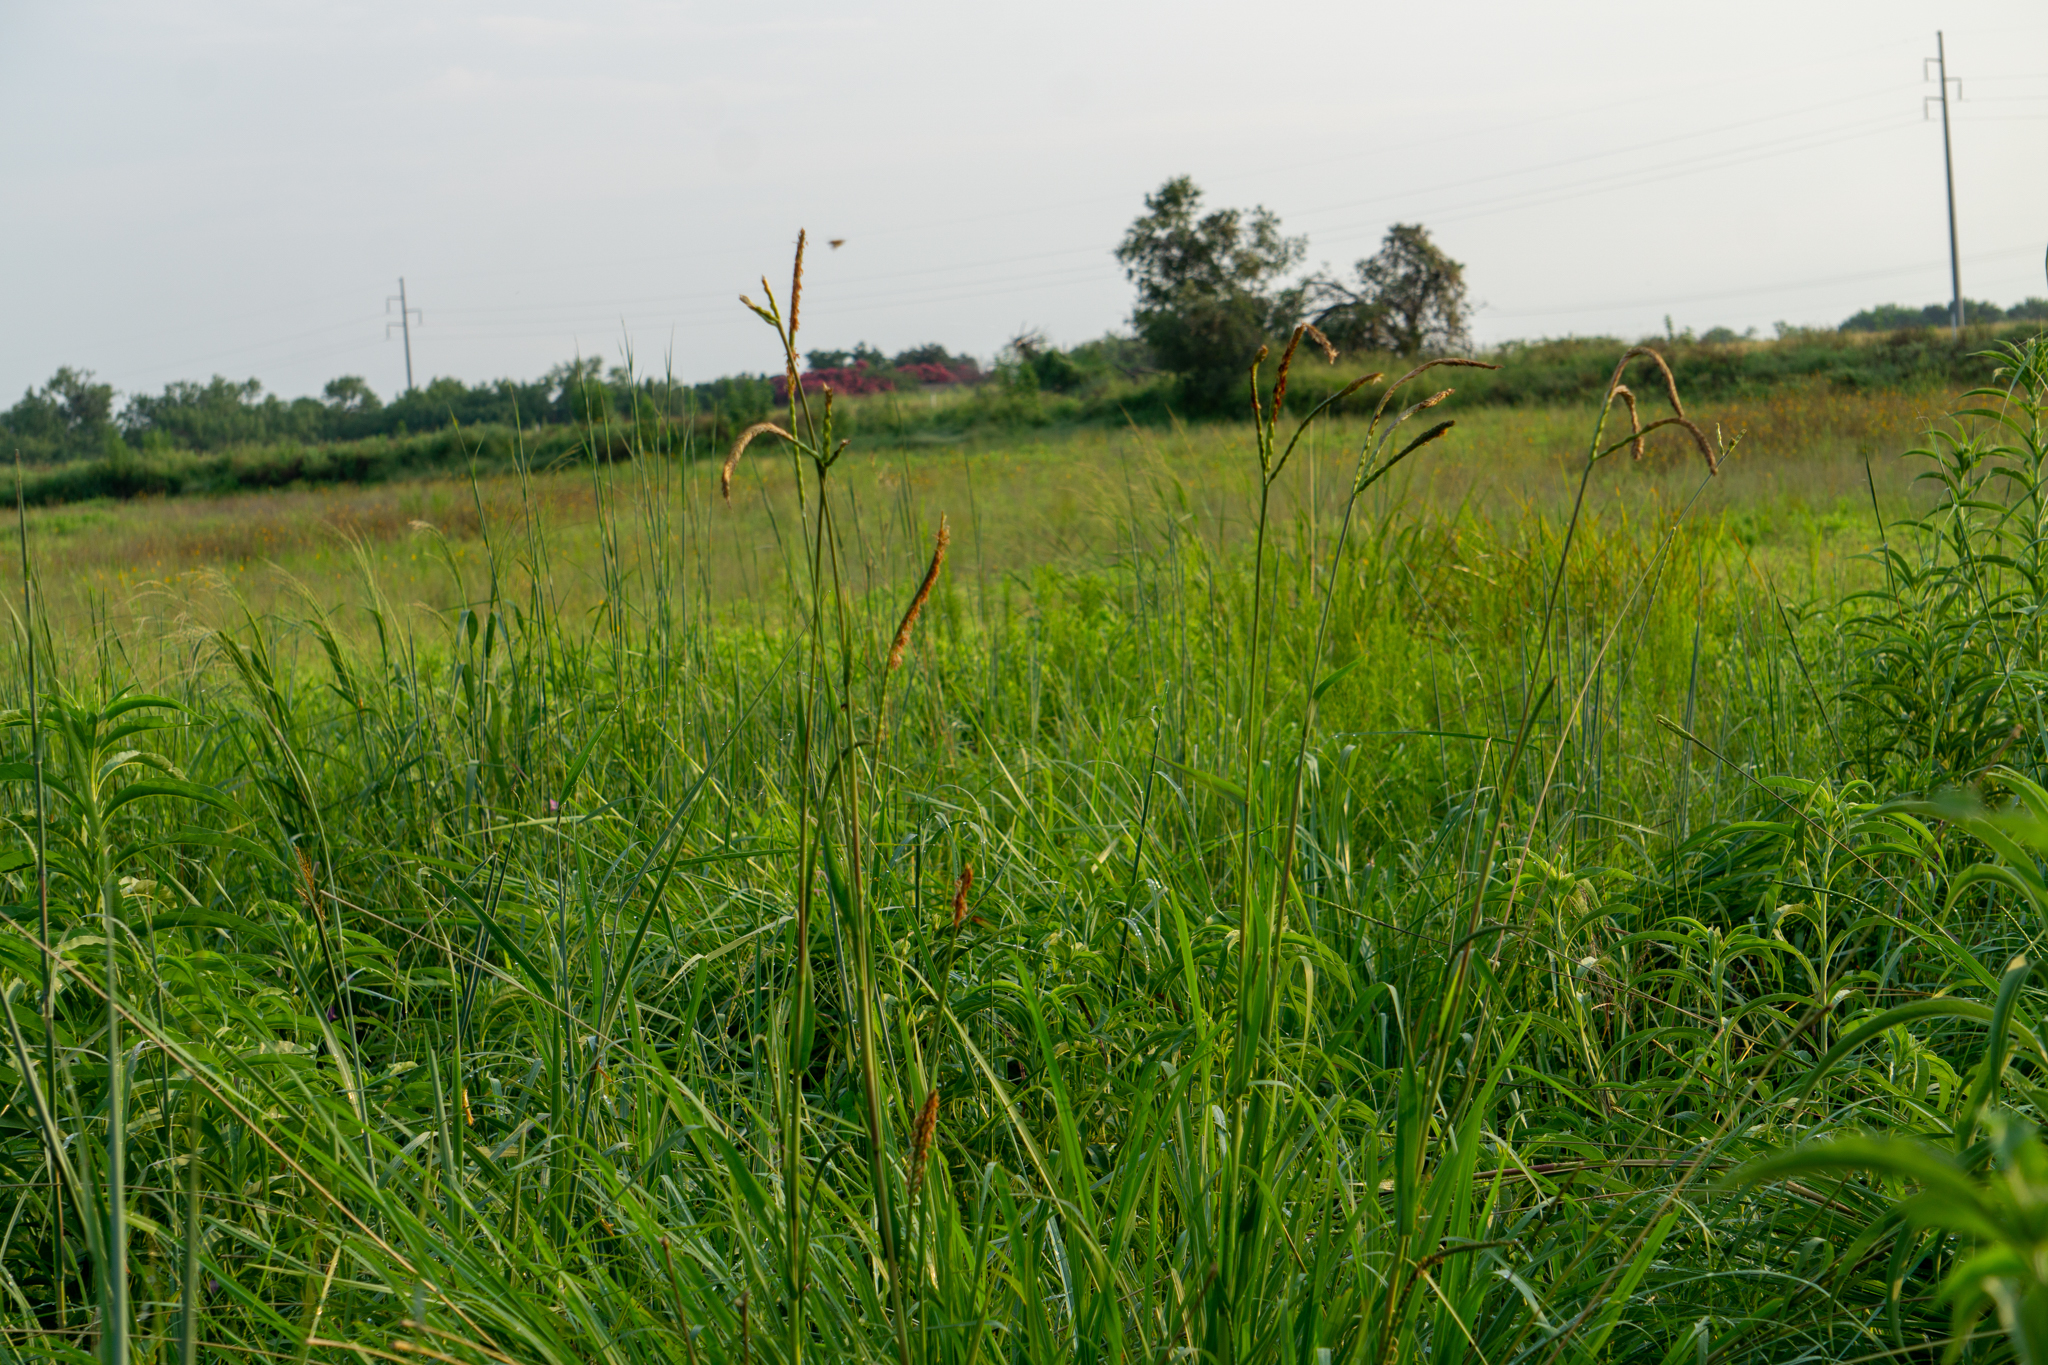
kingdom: Plantae
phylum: Tracheophyta
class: Liliopsida
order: Poales
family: Poaceae
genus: Tripsacum
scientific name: Tripsacum dactyloides
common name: Buffalo-grass
